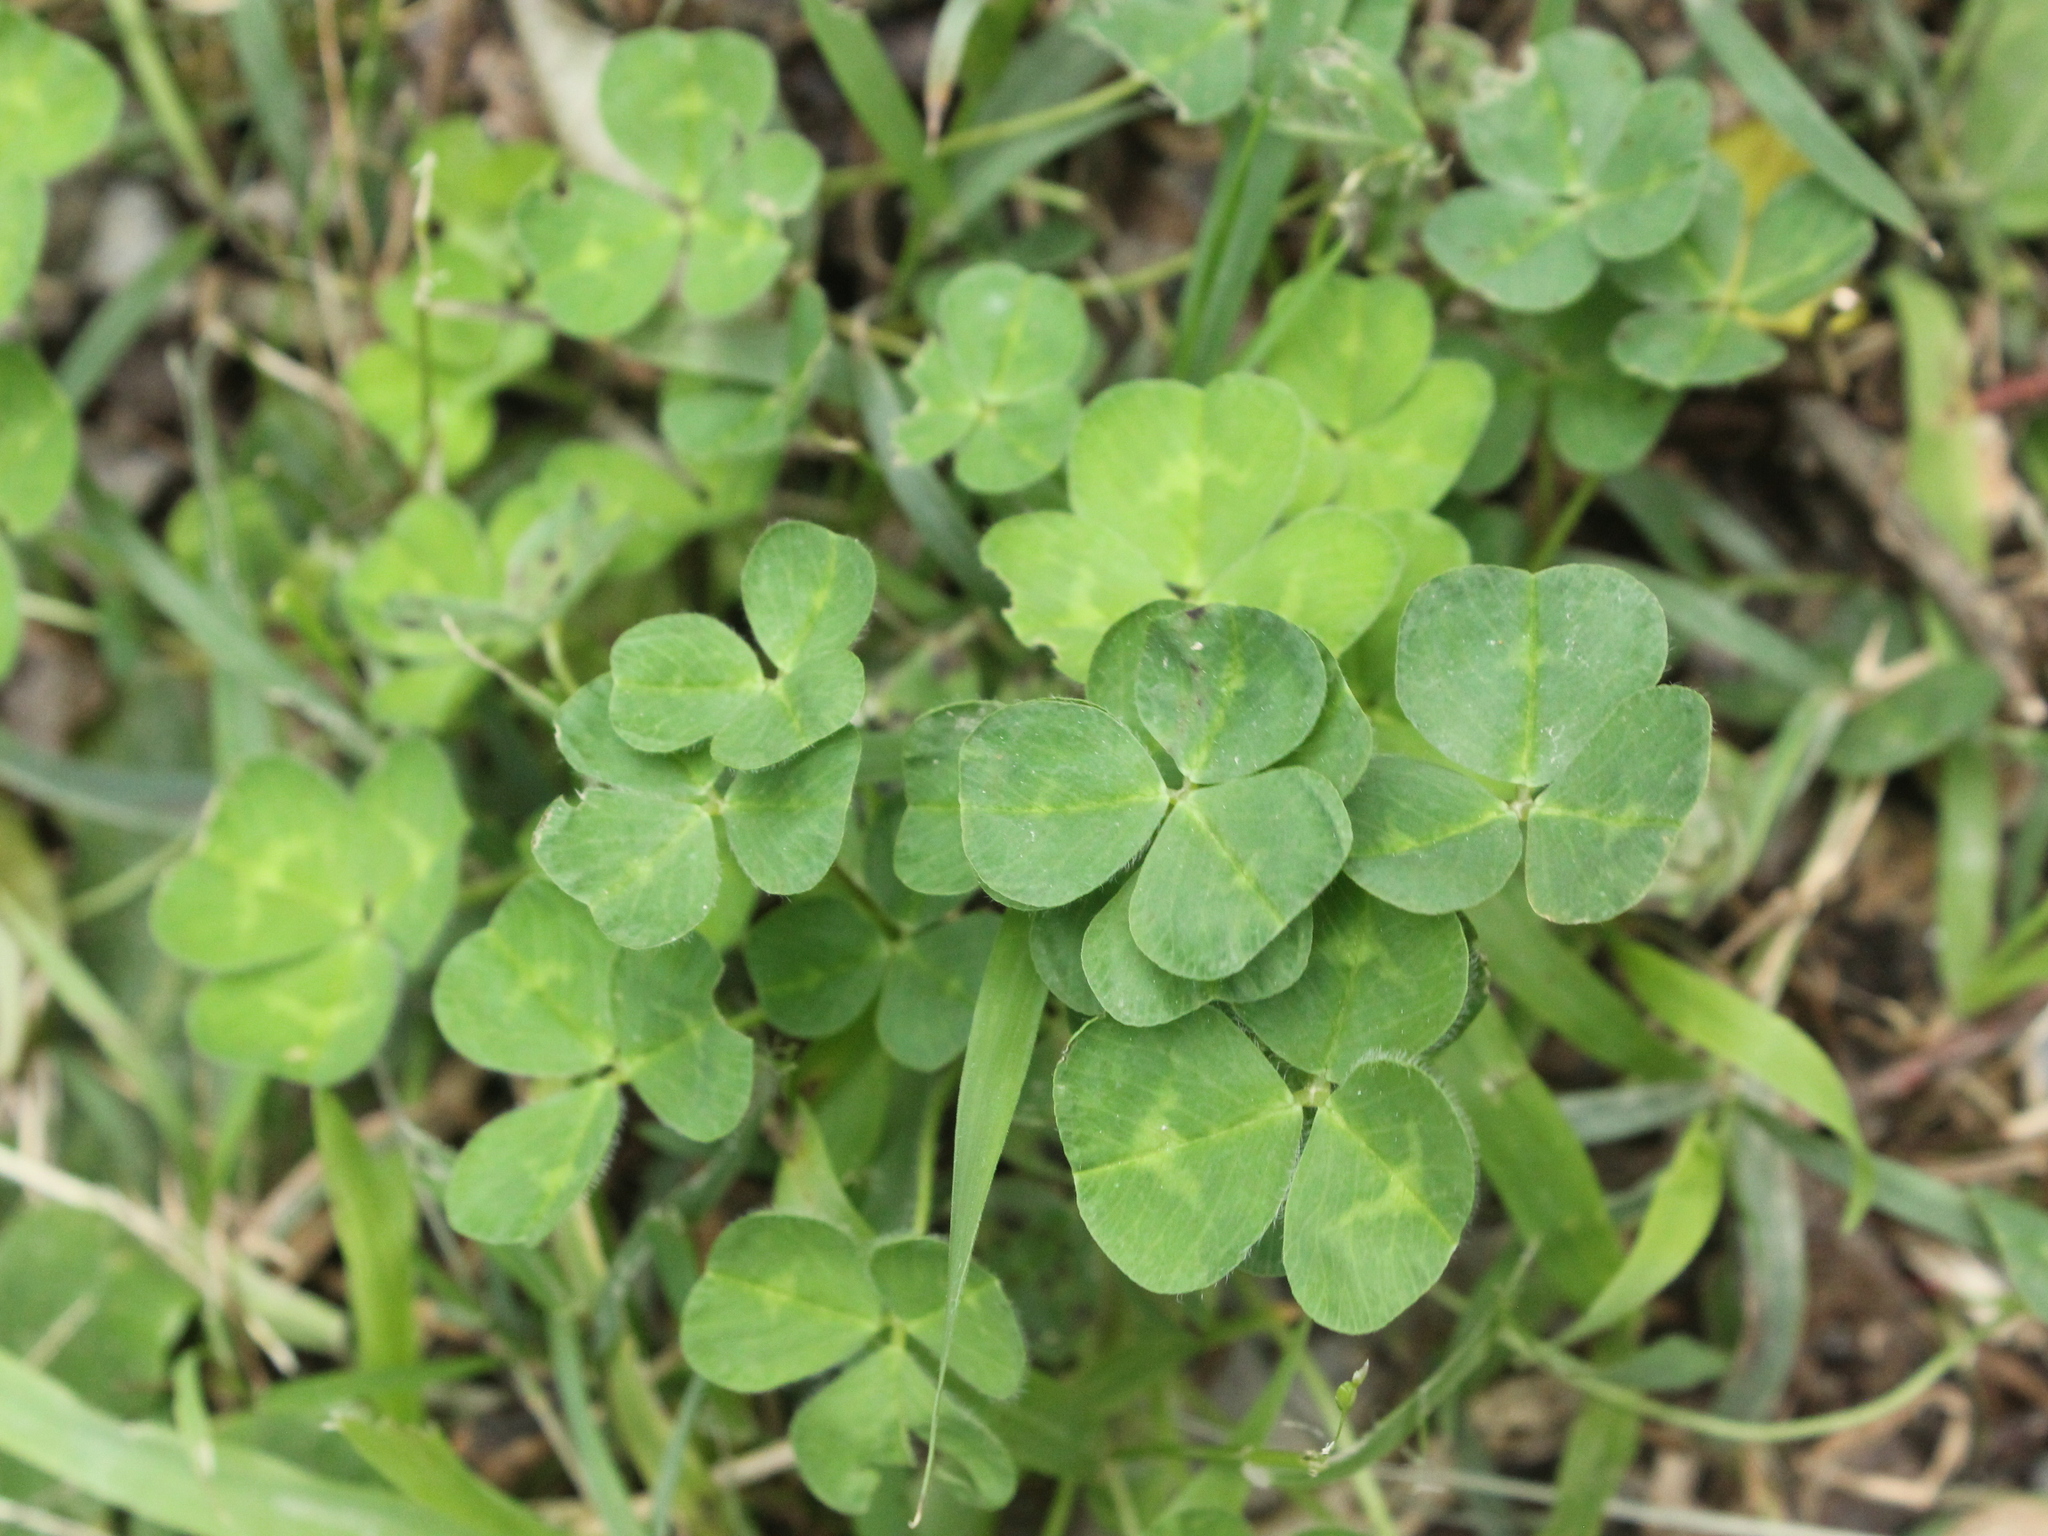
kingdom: Plantae
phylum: Tracheophyta
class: Magnoliopsida
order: Fabales
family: Fabaceae
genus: Trifolium
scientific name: Trifolium subterraneum
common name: Subterranean clover
